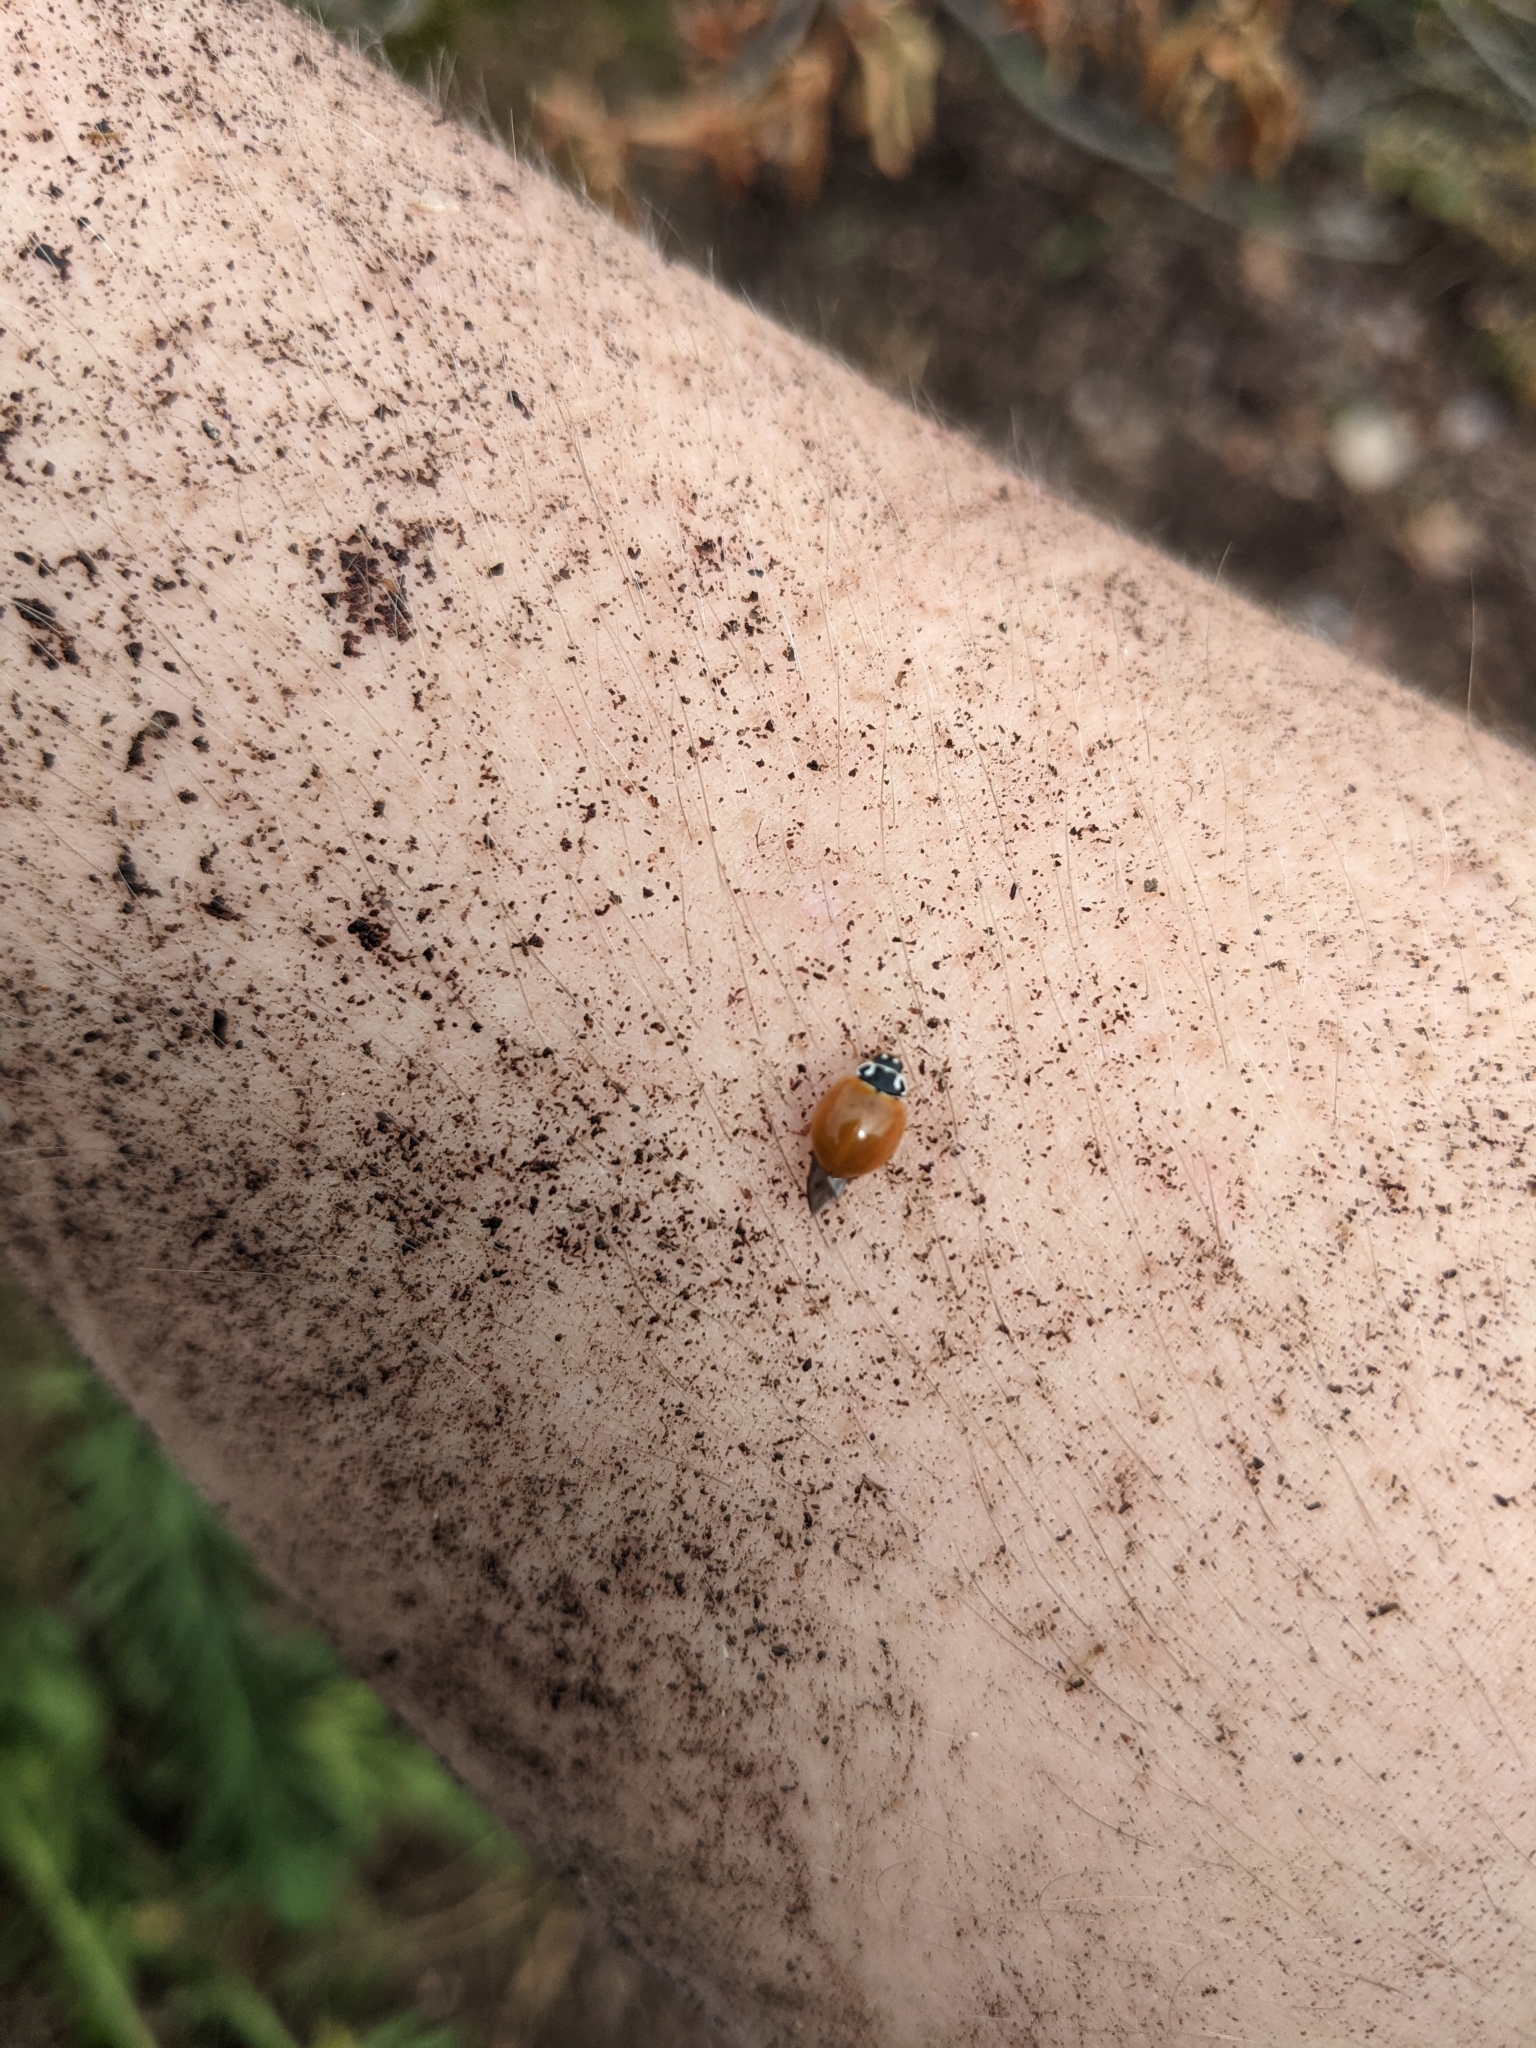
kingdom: Animalia
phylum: Arthropoda
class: Insecta
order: Coleoptera
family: Coccinellidae
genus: Cycloneda
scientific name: Cycloneda munda
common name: Polished lady beetle
